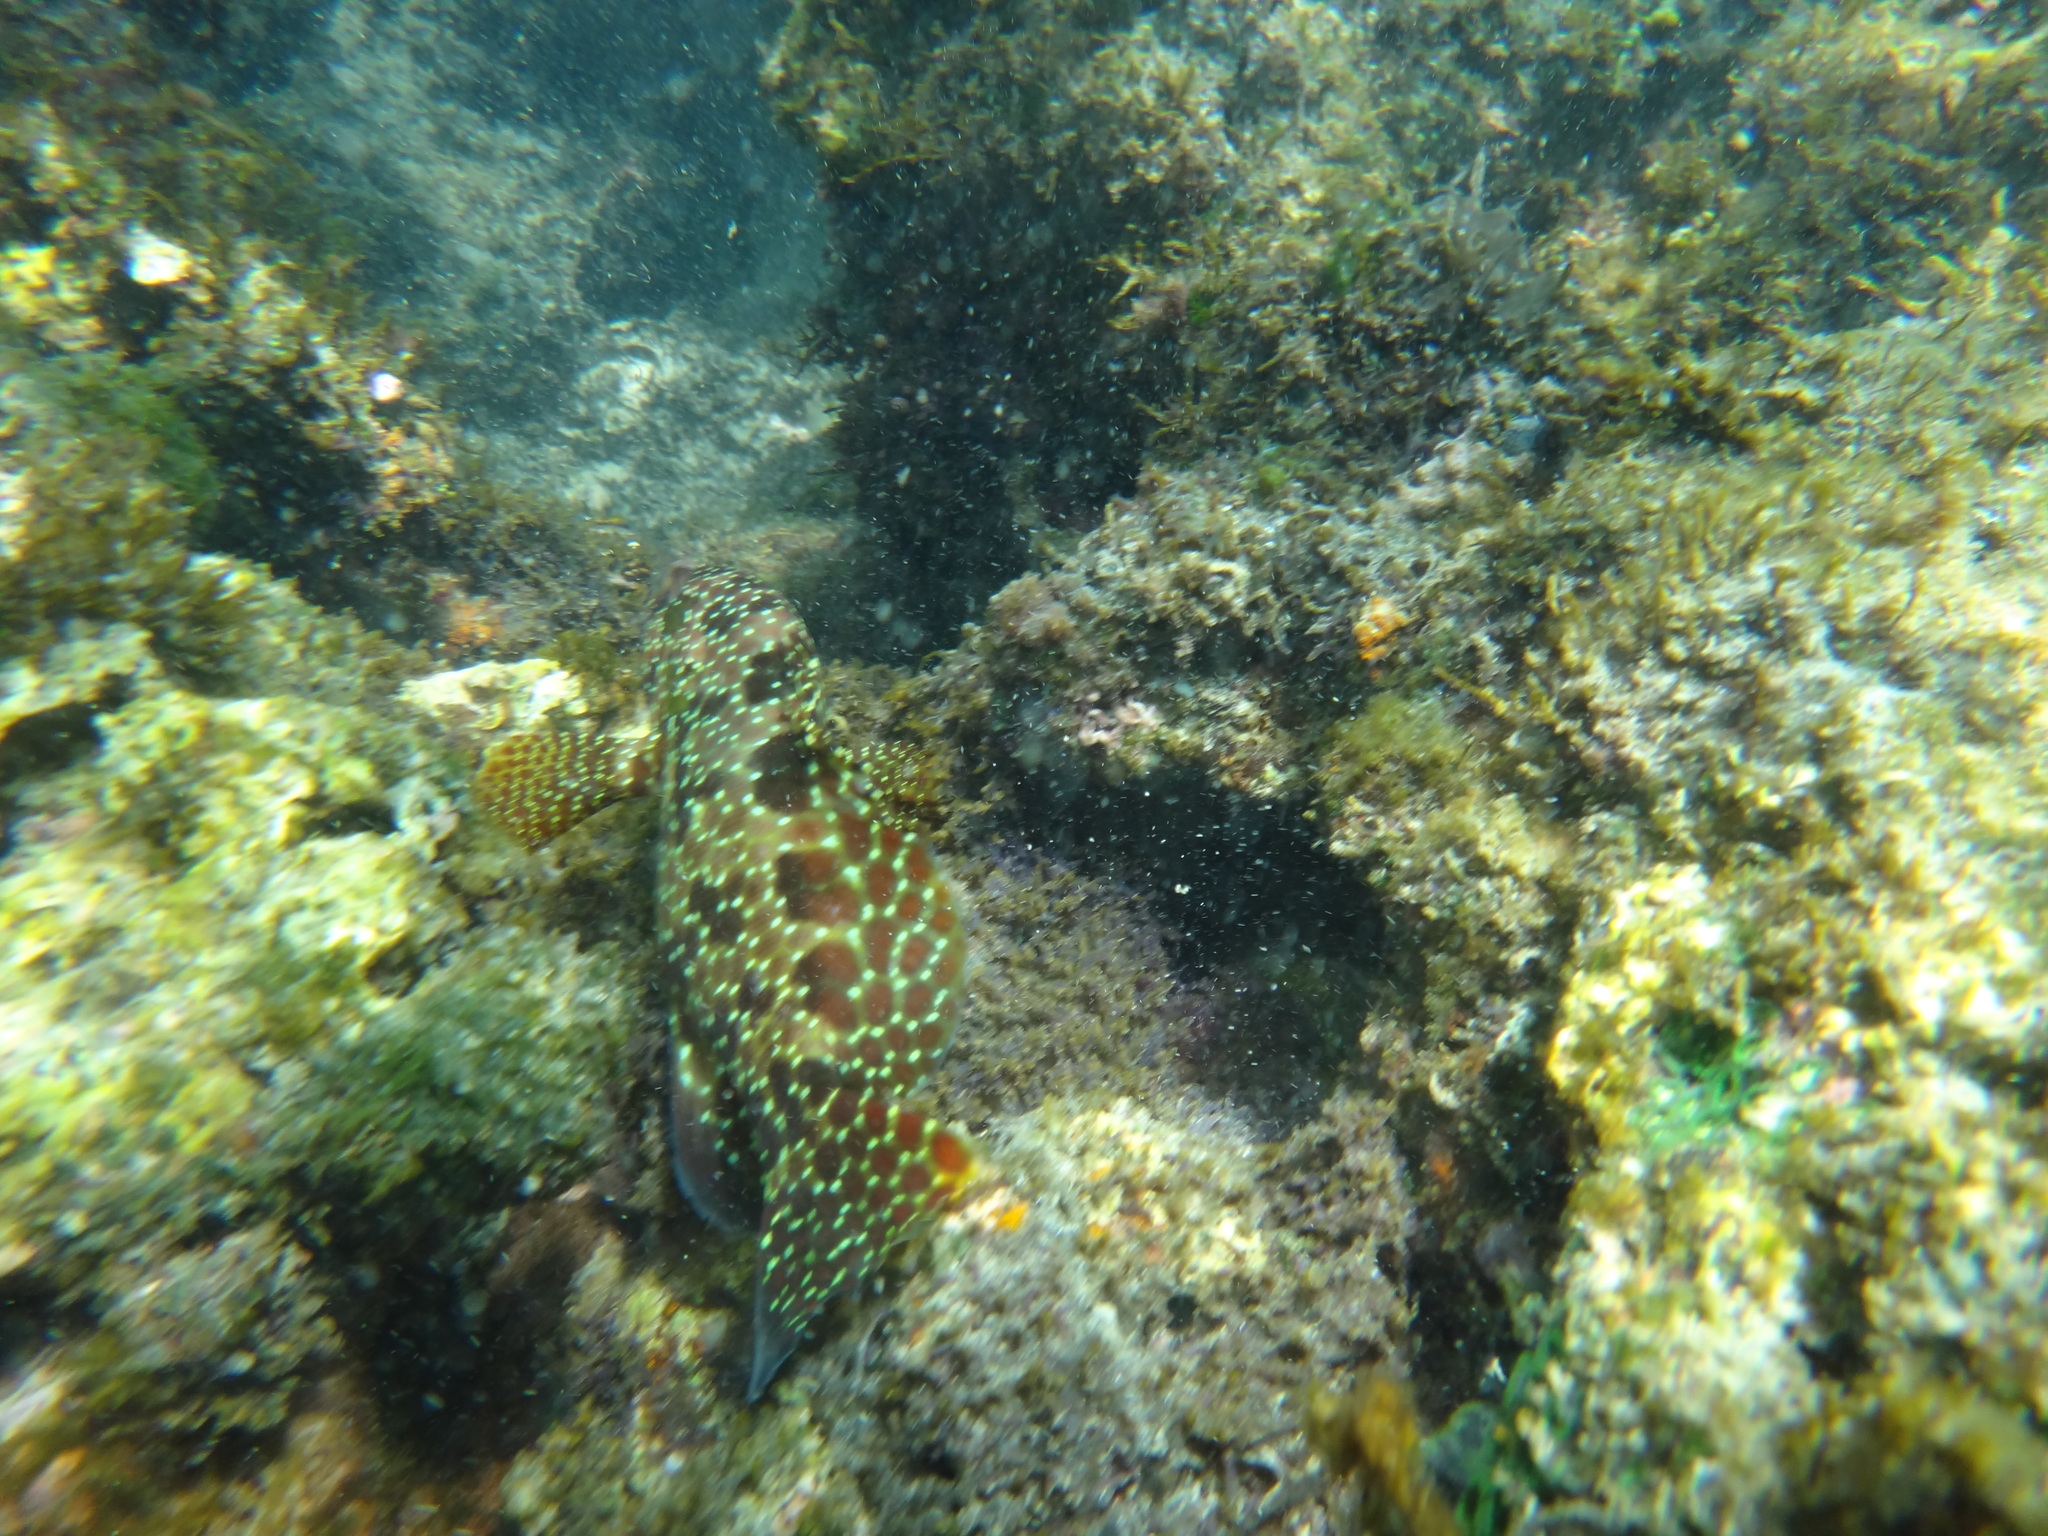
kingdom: Animalia
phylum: Chordata
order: Perciformes
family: Serranidae
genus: Epinephelus
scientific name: Epinephelus hexagonatus
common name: Hexagon grouper
